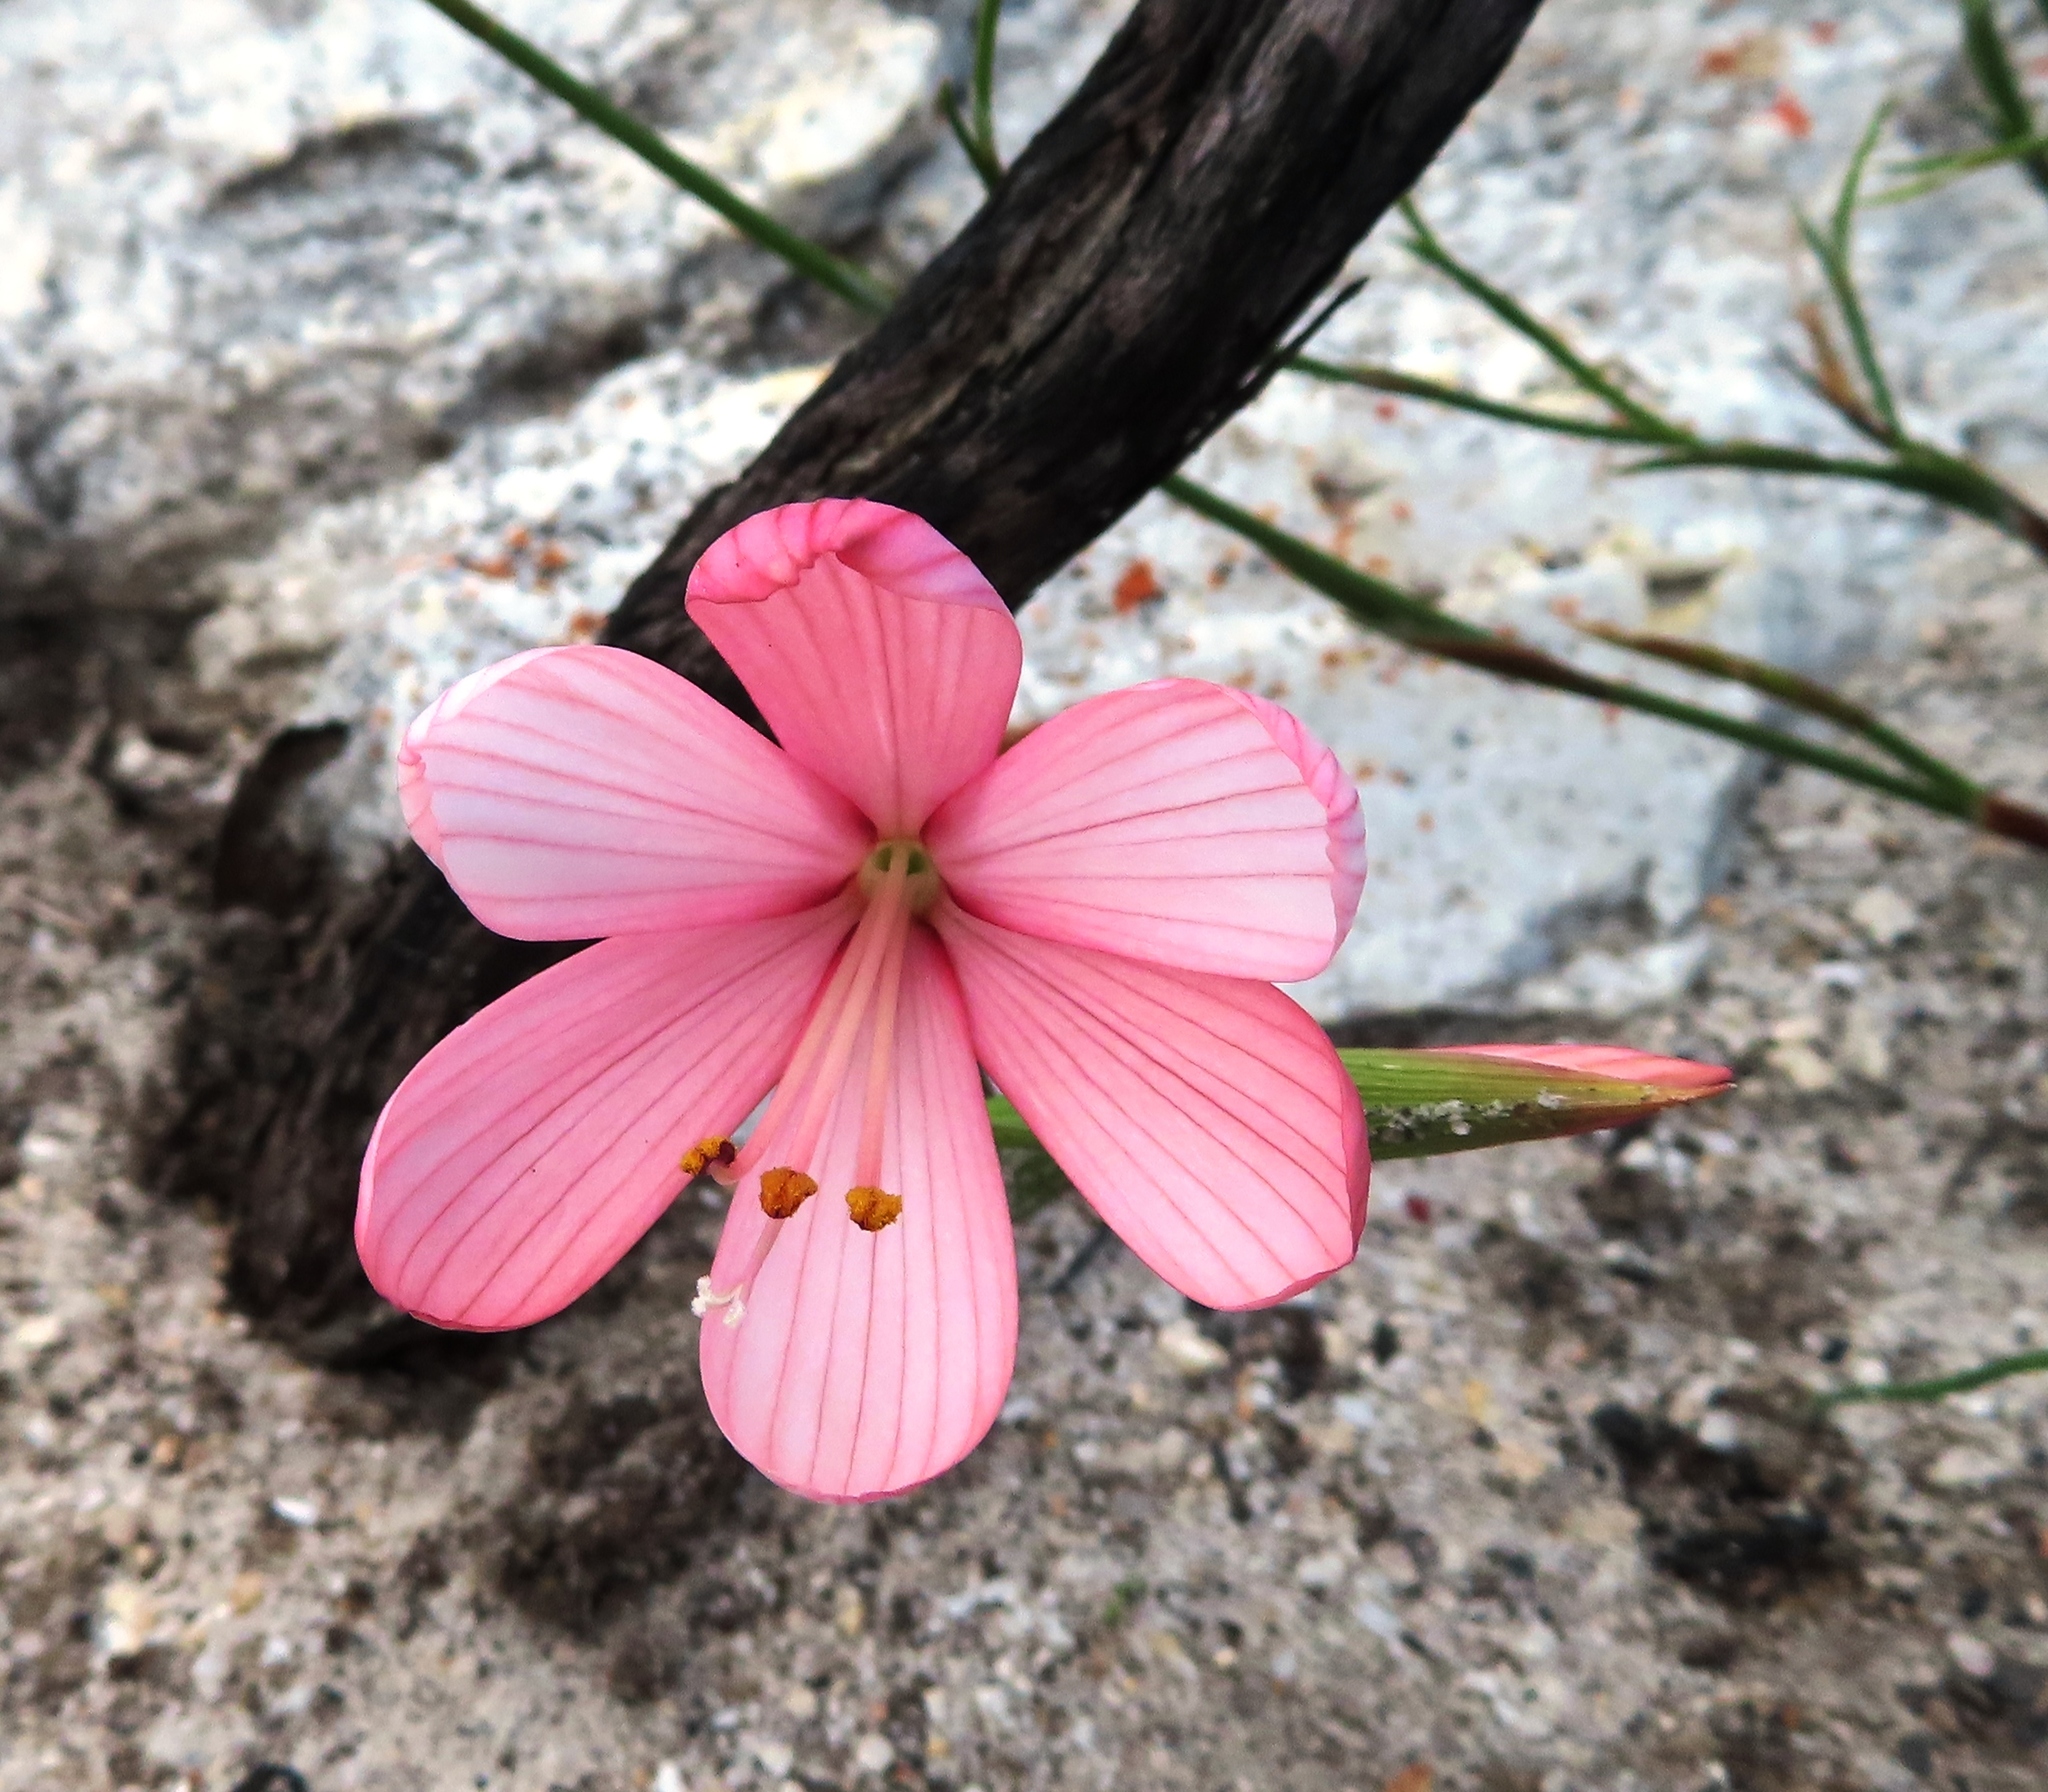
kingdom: Plantae
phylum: Tracheophyta
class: Liliopsida
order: Asparagales
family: Iridaceae
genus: Geissorhiza
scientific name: Geissorhiza schinzii
